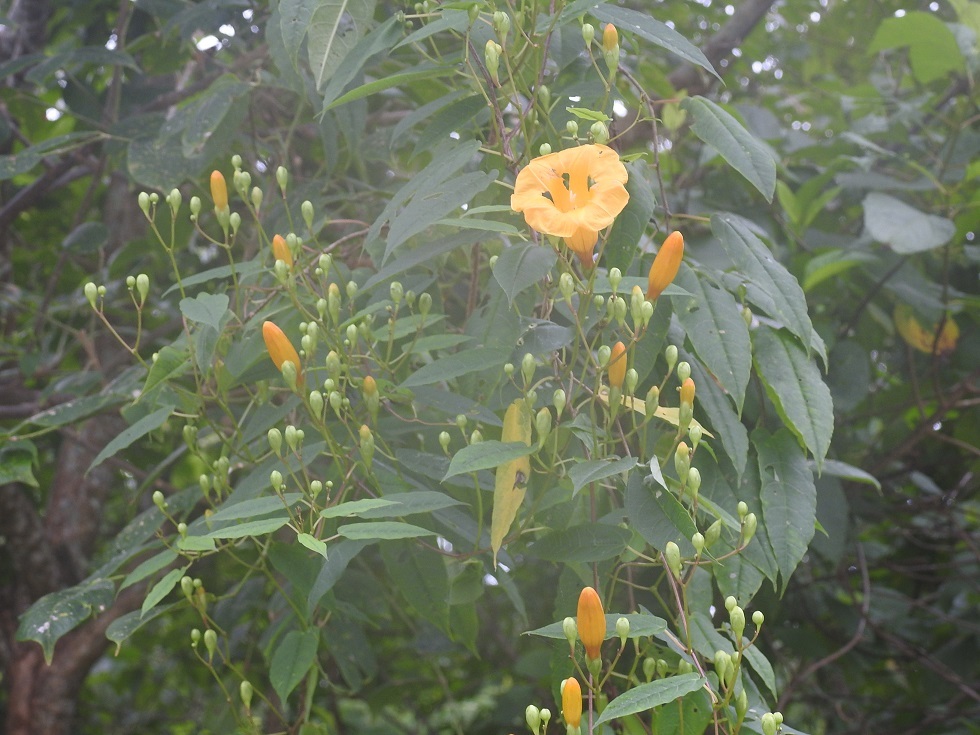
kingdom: Plantae
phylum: Tracheophyta
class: Magnoliopsida
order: Solanales
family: Convolvulaceae
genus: Ipomoea
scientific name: Ipomoea aurantiaca
